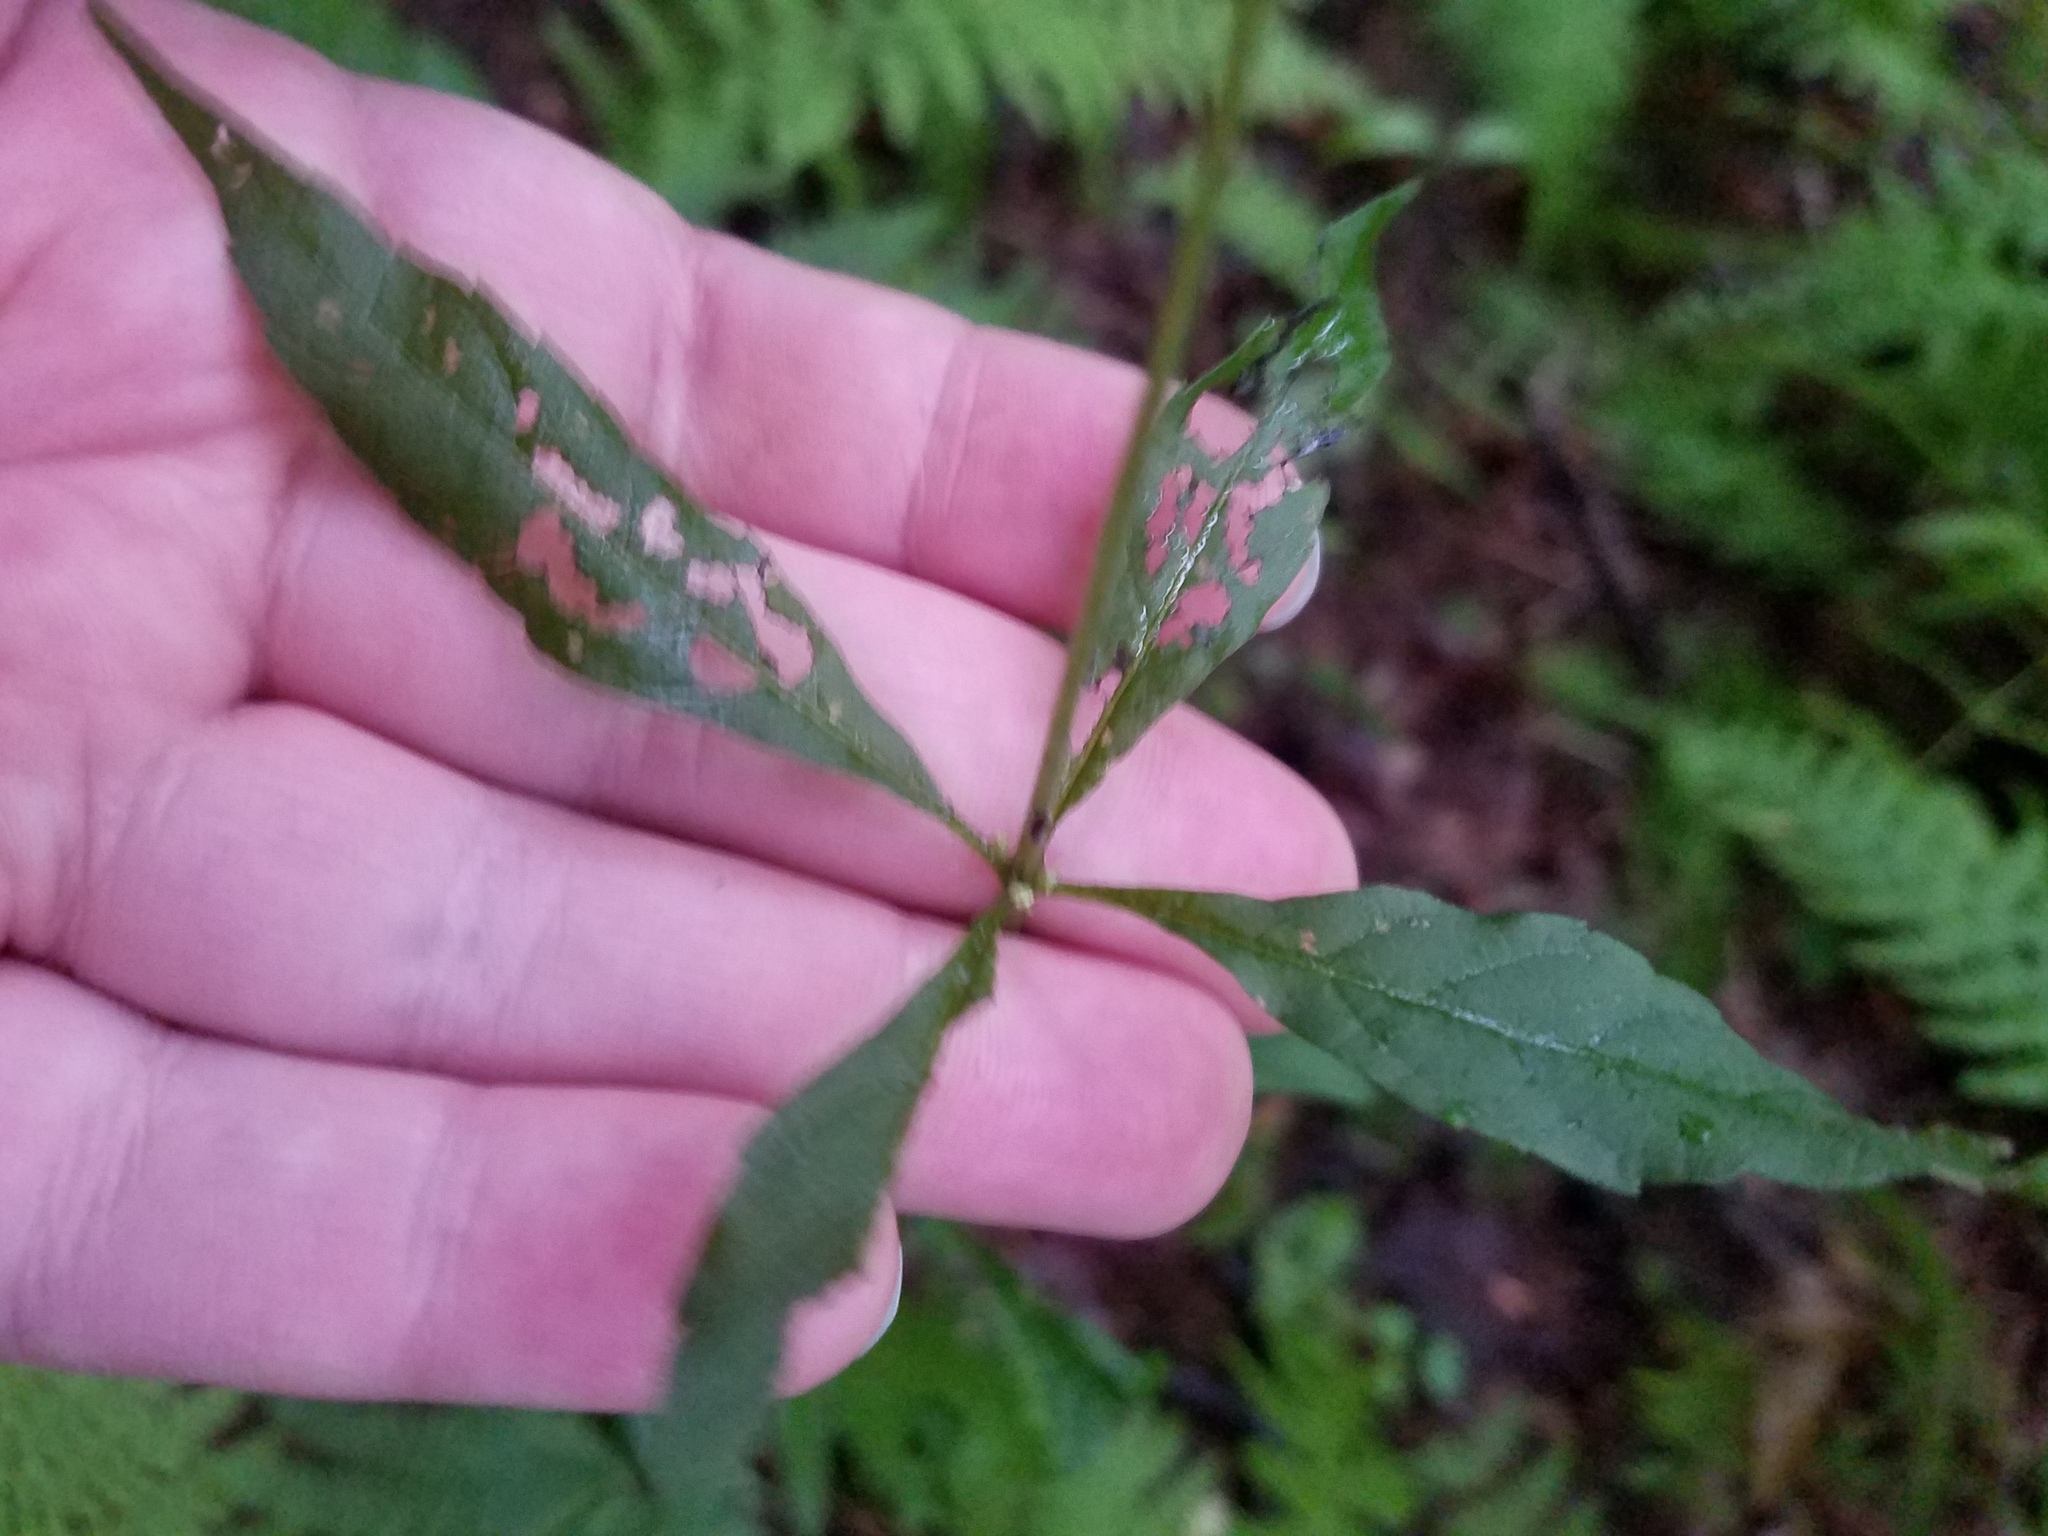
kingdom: Plantae
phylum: Tracheophyta
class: Magnoliopsida
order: Asterales
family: Asteraceae
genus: Eutrochium
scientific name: Eutrochium purpureum
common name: Gravelroot
